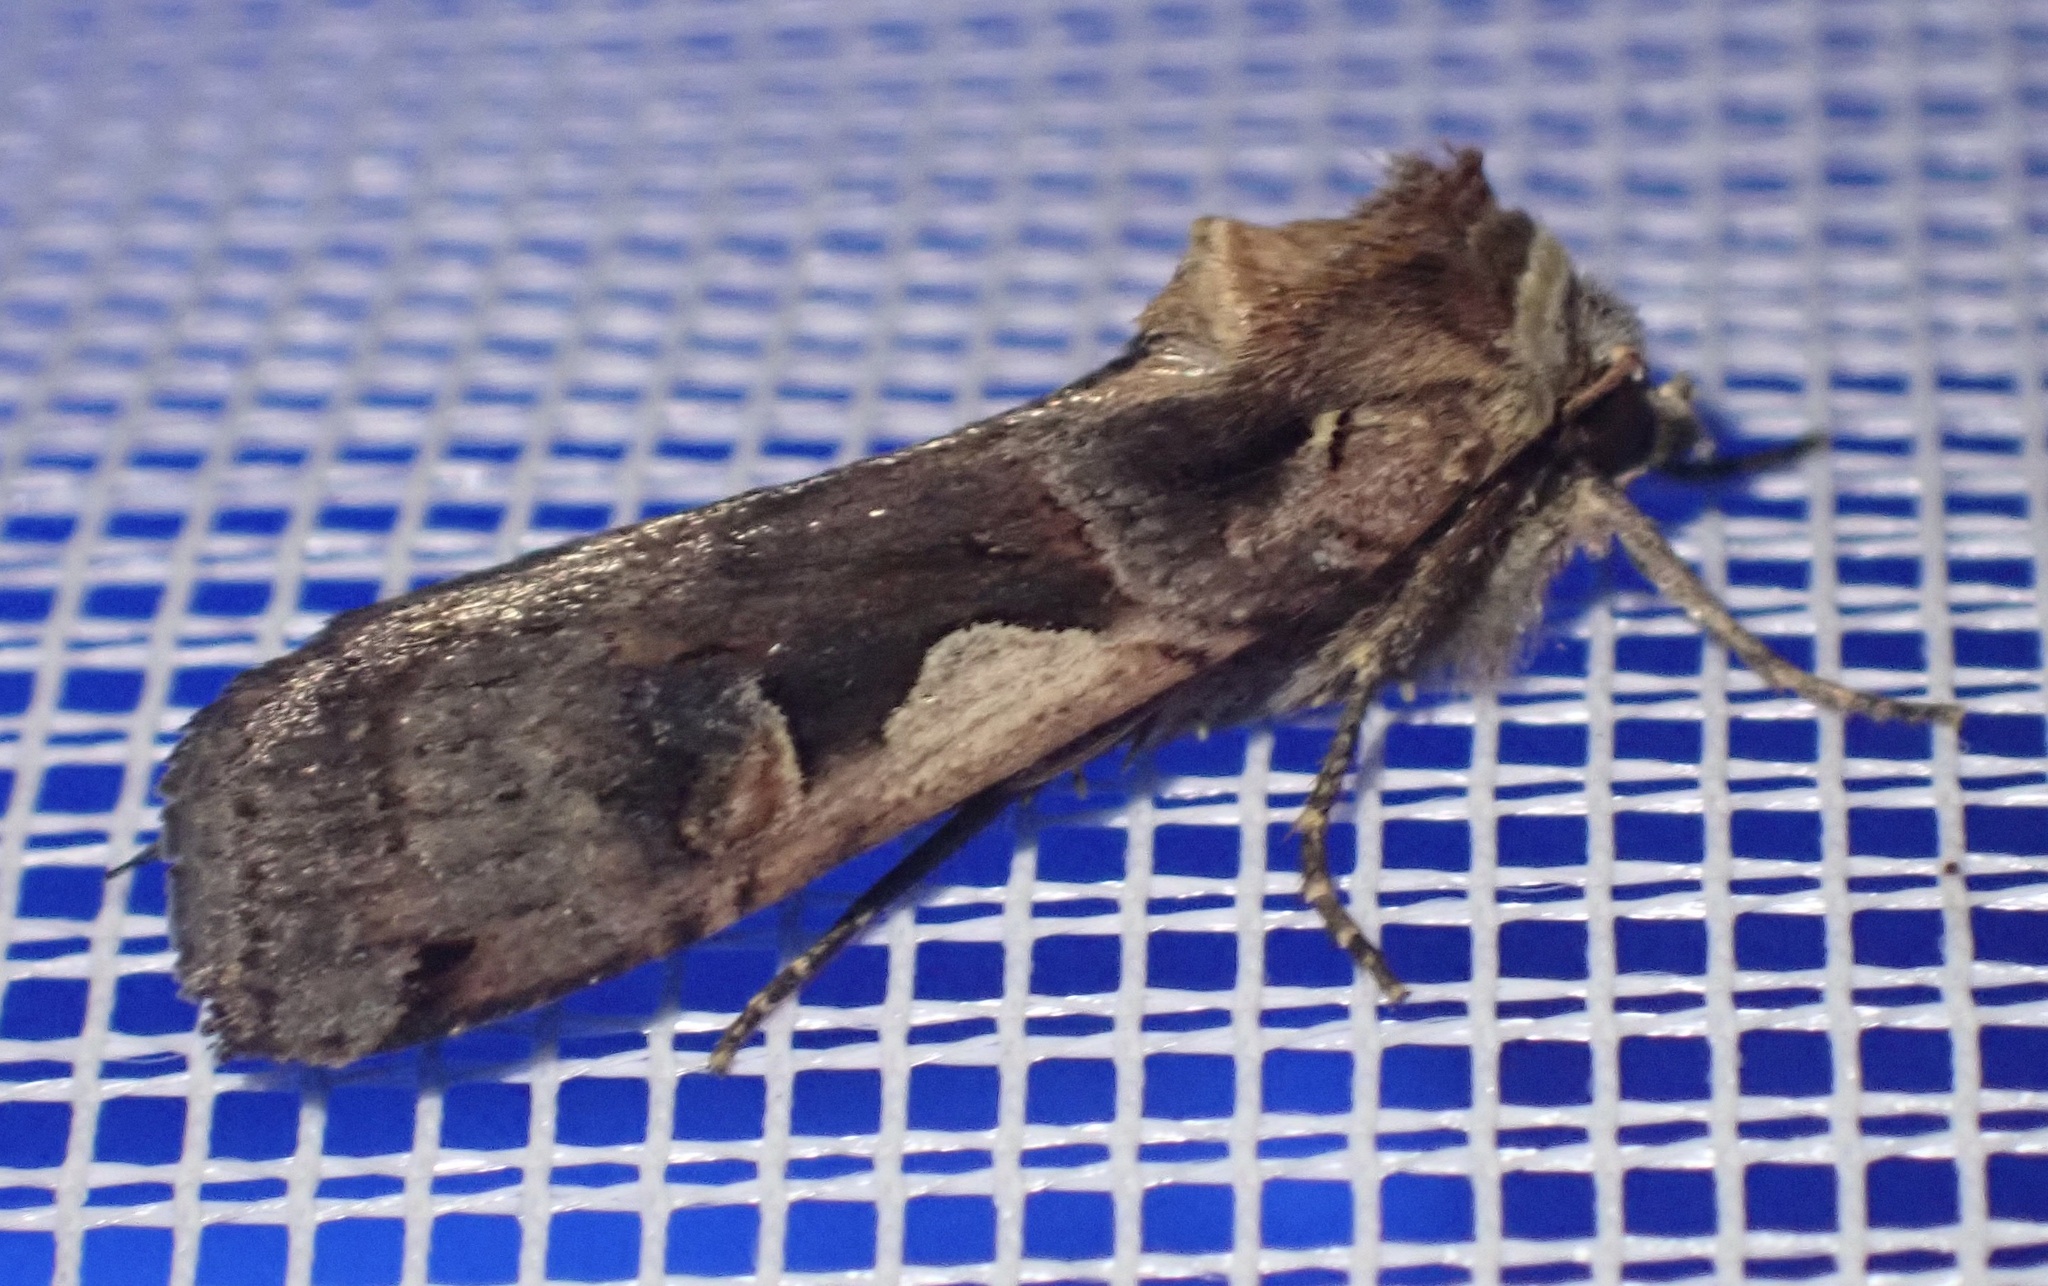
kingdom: Animalia
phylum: Arthropoda
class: Insecta
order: Lepidoptera
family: Noctuidae
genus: Xestia
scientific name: Xestia c-nigrum
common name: Setaceous hebrew character
